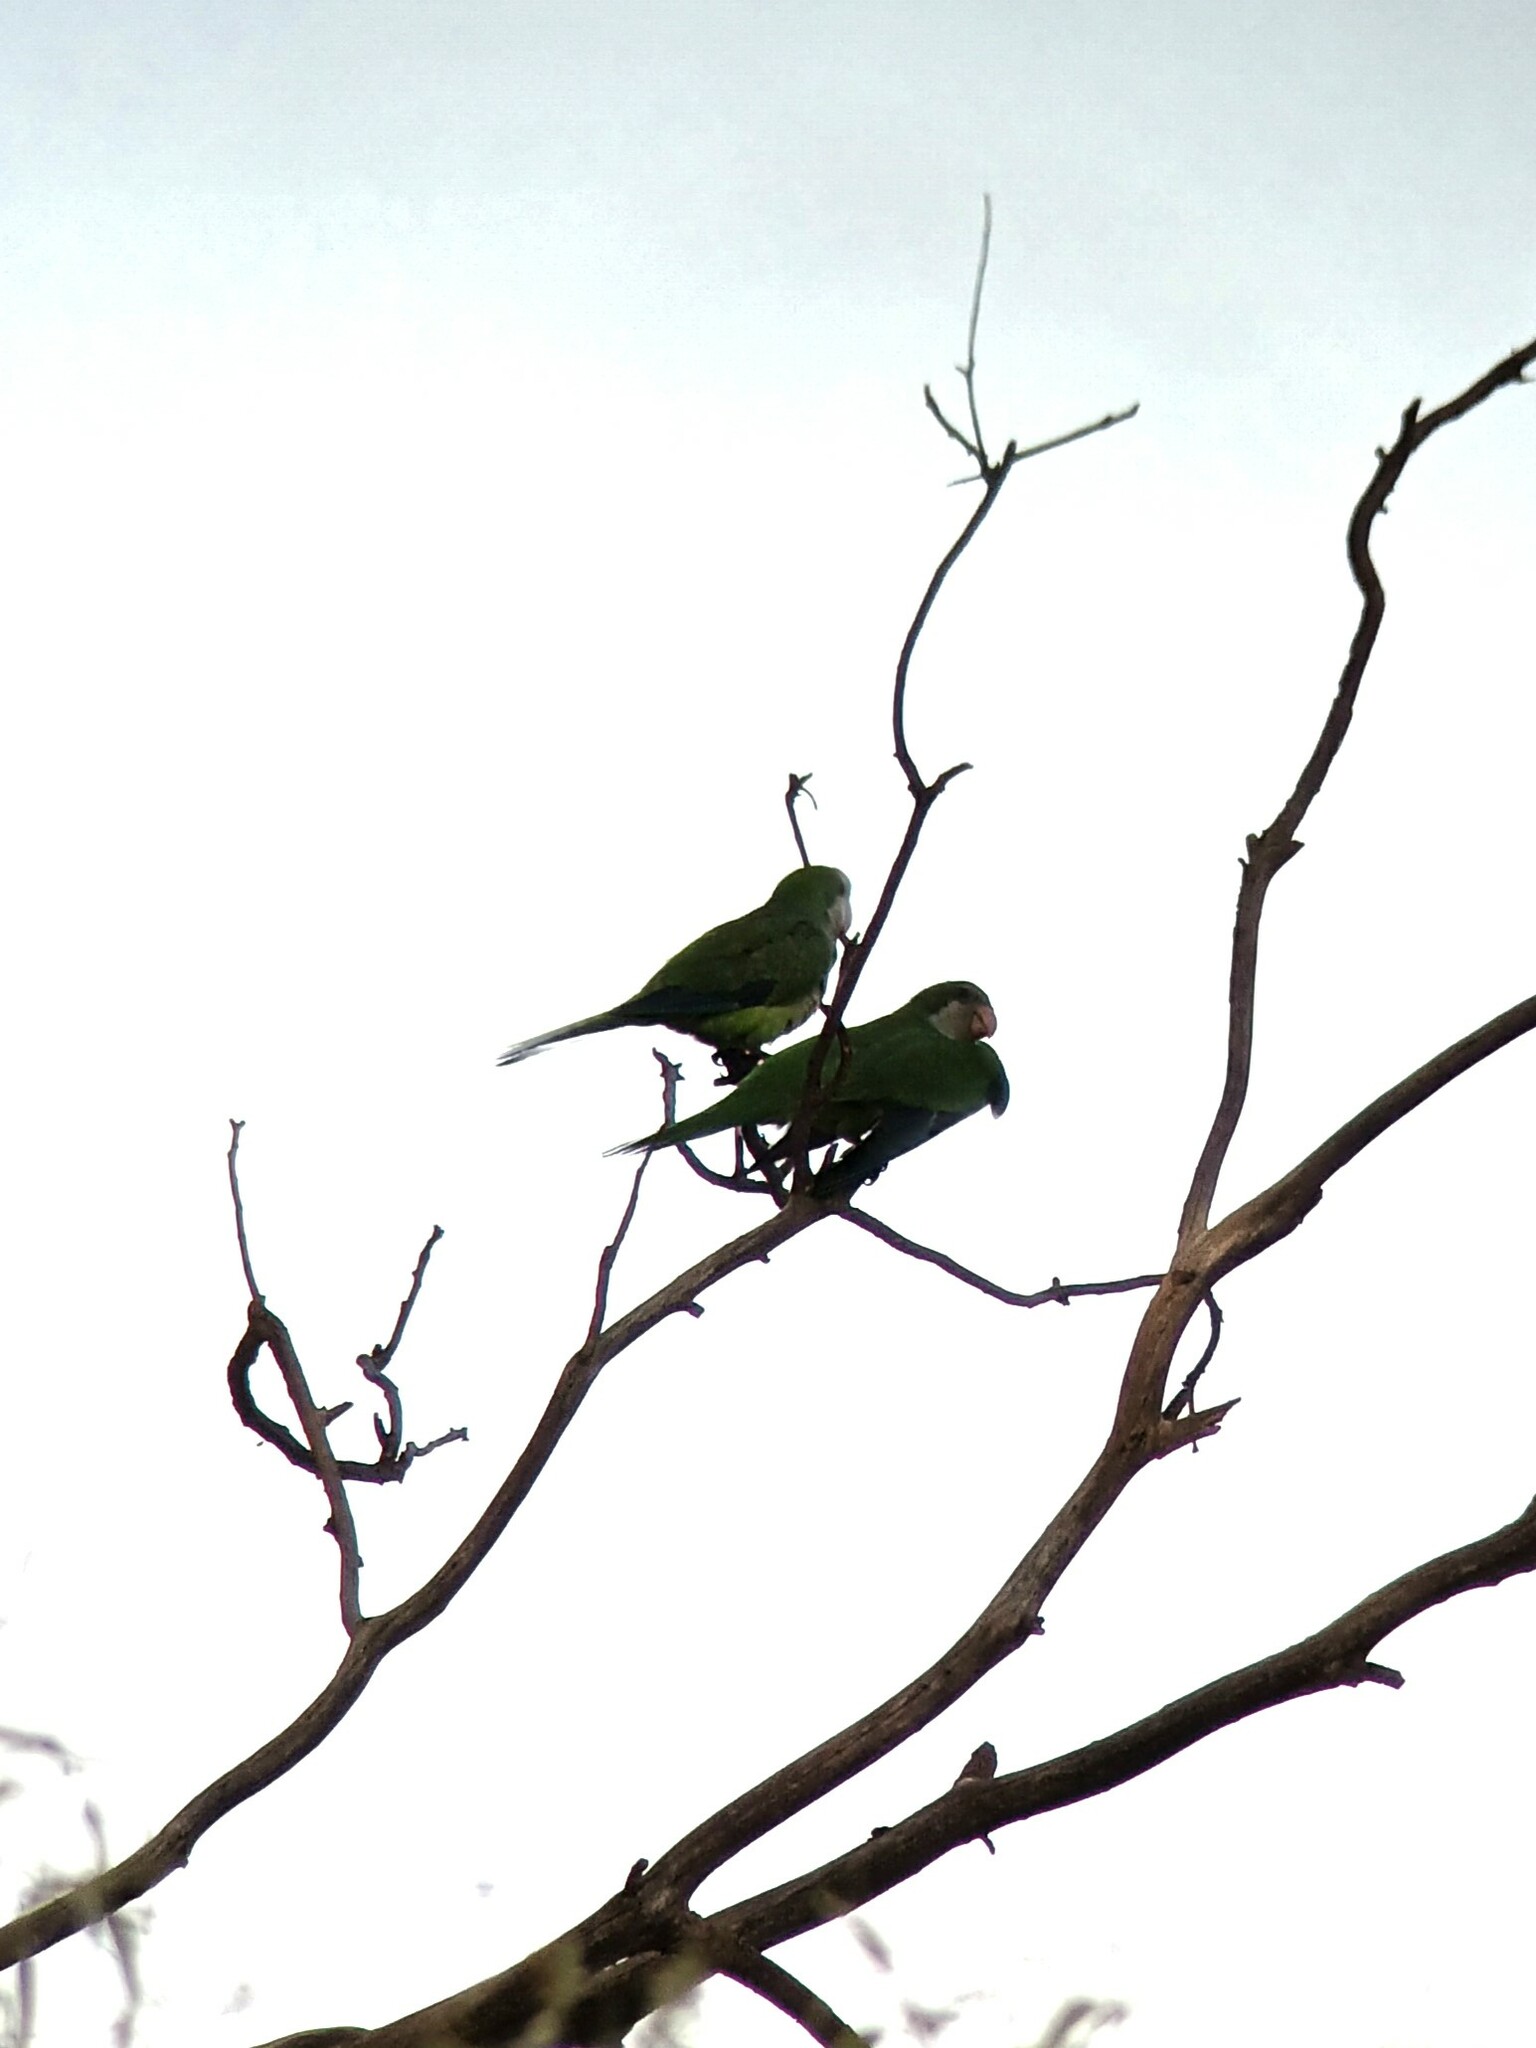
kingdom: Animalia
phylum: Chordata
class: Aves
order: Psittaciformes
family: Psittacidae
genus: Myiopsitta
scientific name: Myiopsitta monachus
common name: Monk parakeet
